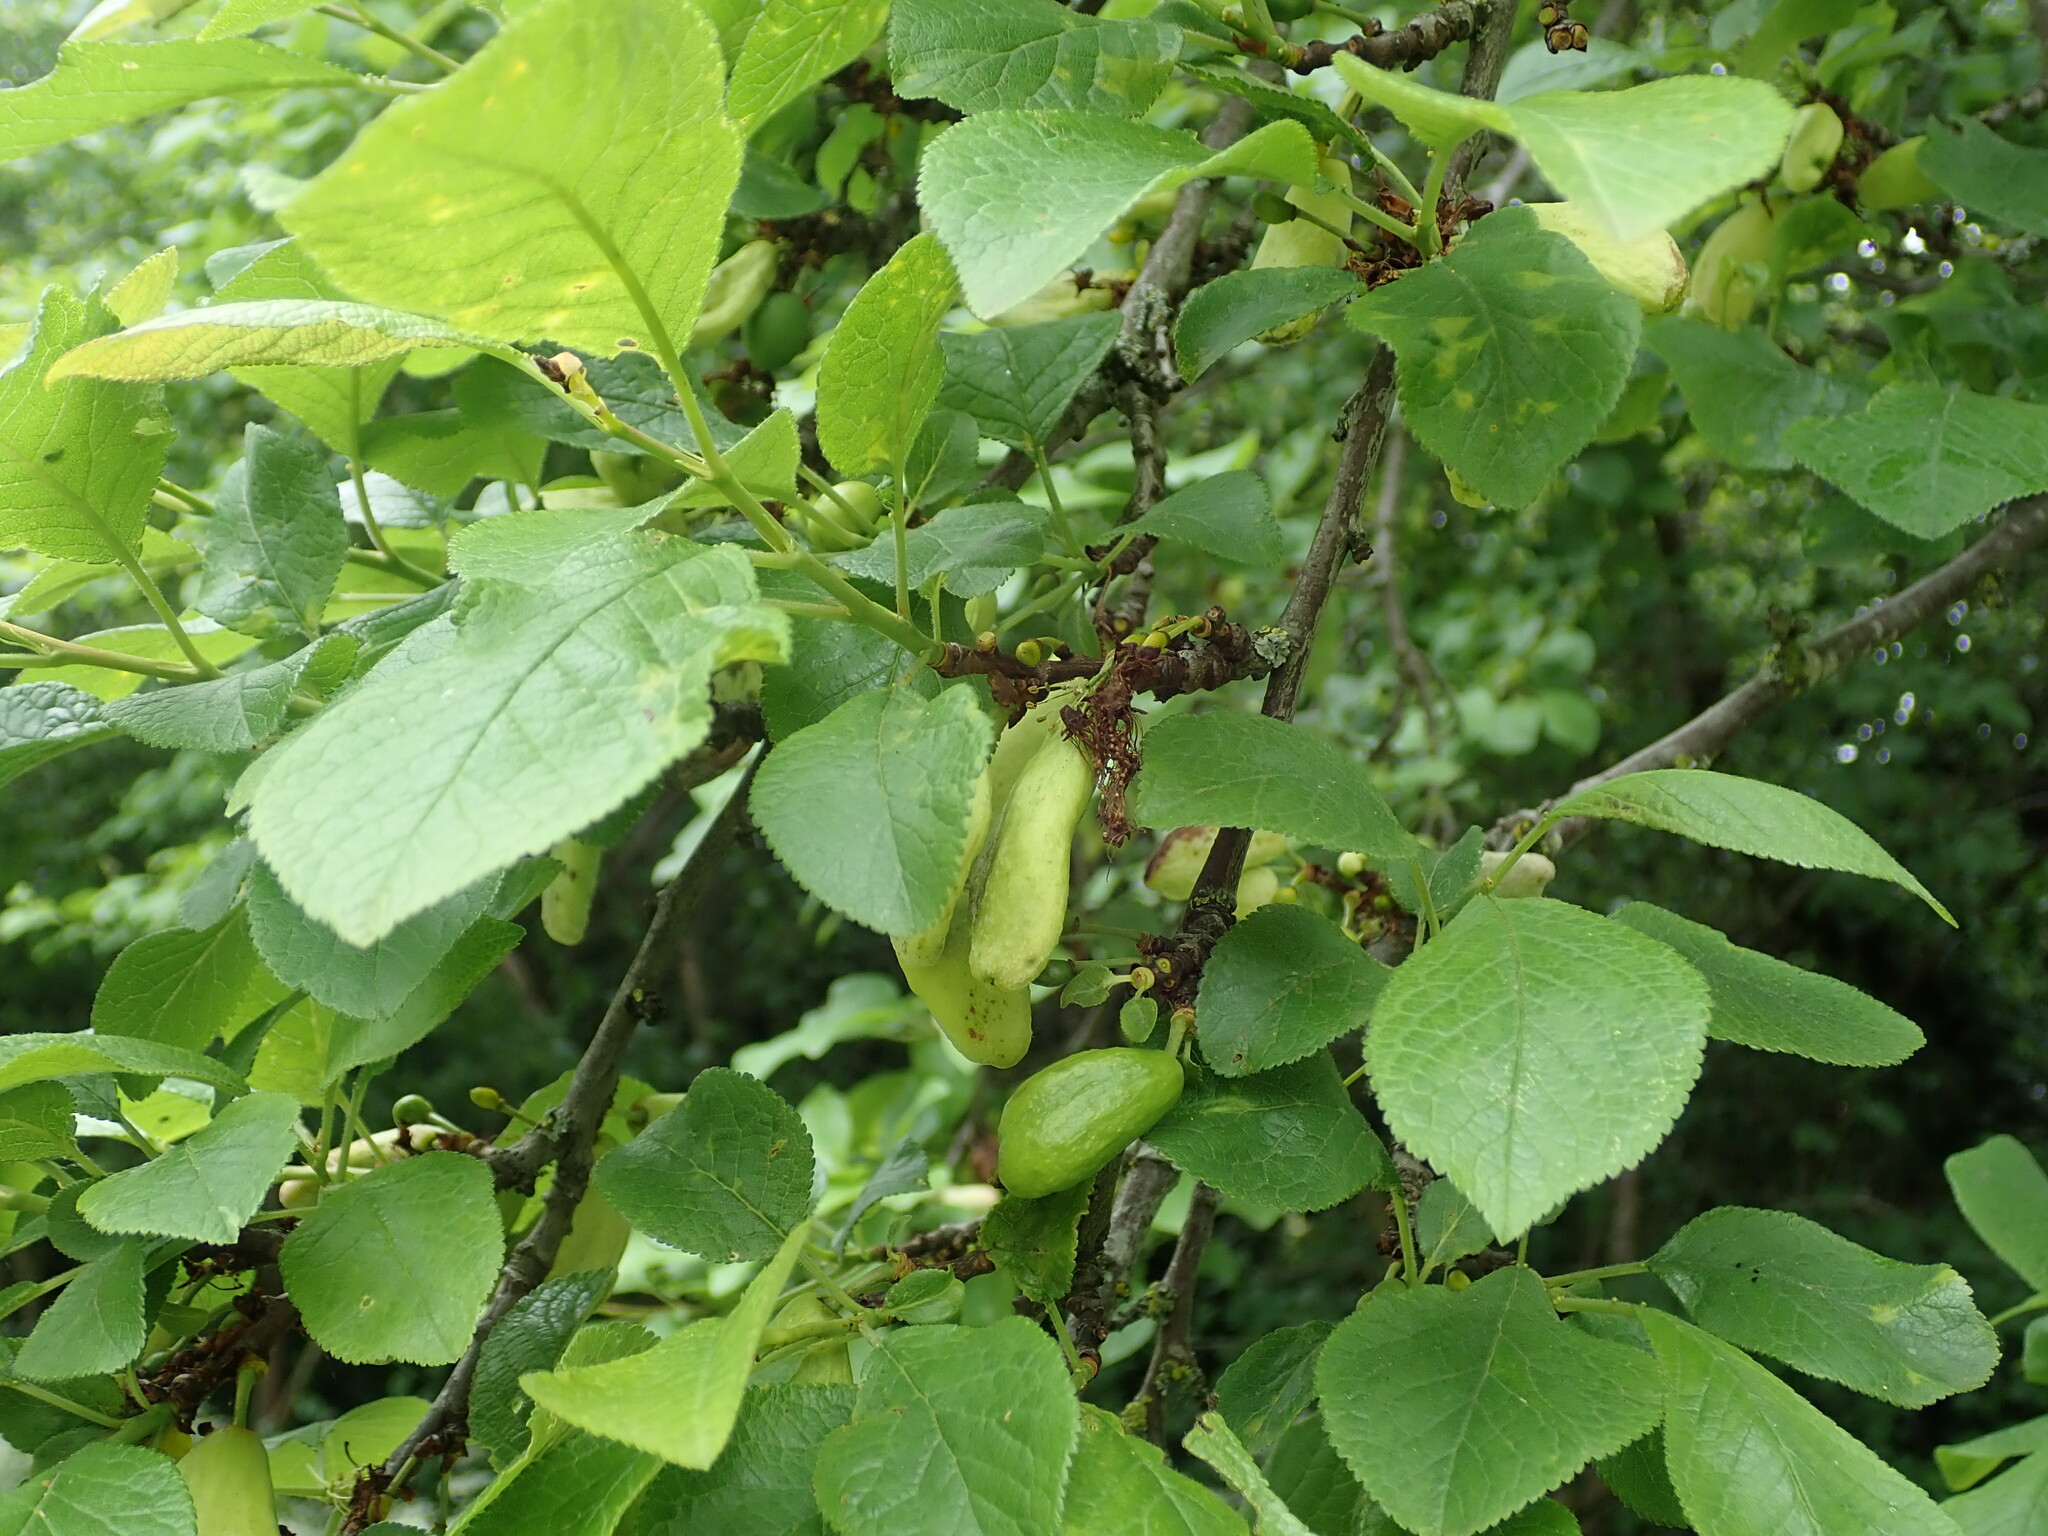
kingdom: Fungi
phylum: Ascomycota
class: Taphrinomycetes
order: Taphrinales
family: Taphrinaceae
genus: Taphrina
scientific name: Taphrina pruni
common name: Pocket plum
